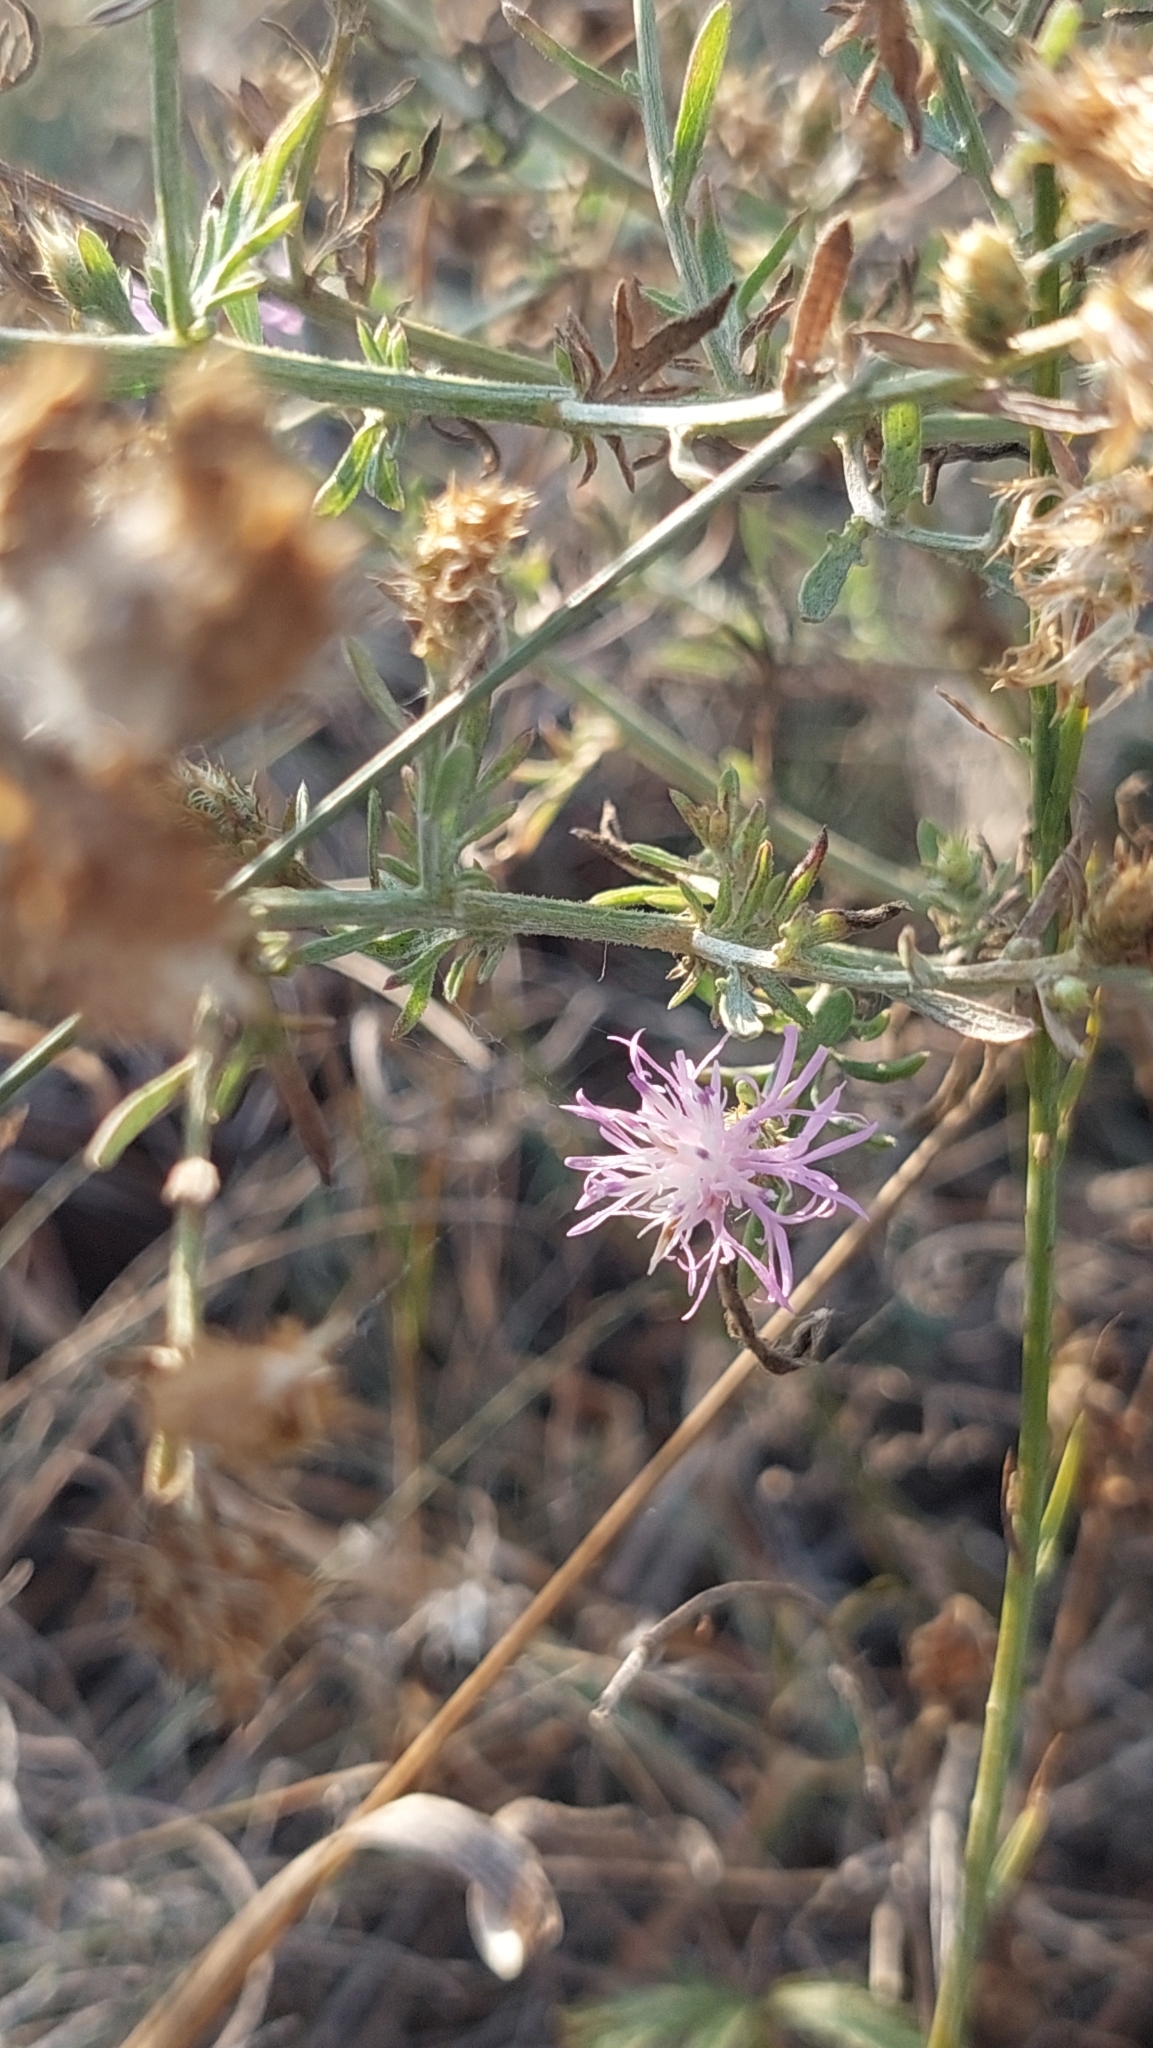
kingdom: Plantae
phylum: Tracheophyta
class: Magnoliopsida
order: Asterales
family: Asteraceae
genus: Centaurea
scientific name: Centaurea diffusa
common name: Diffuse knapweed
